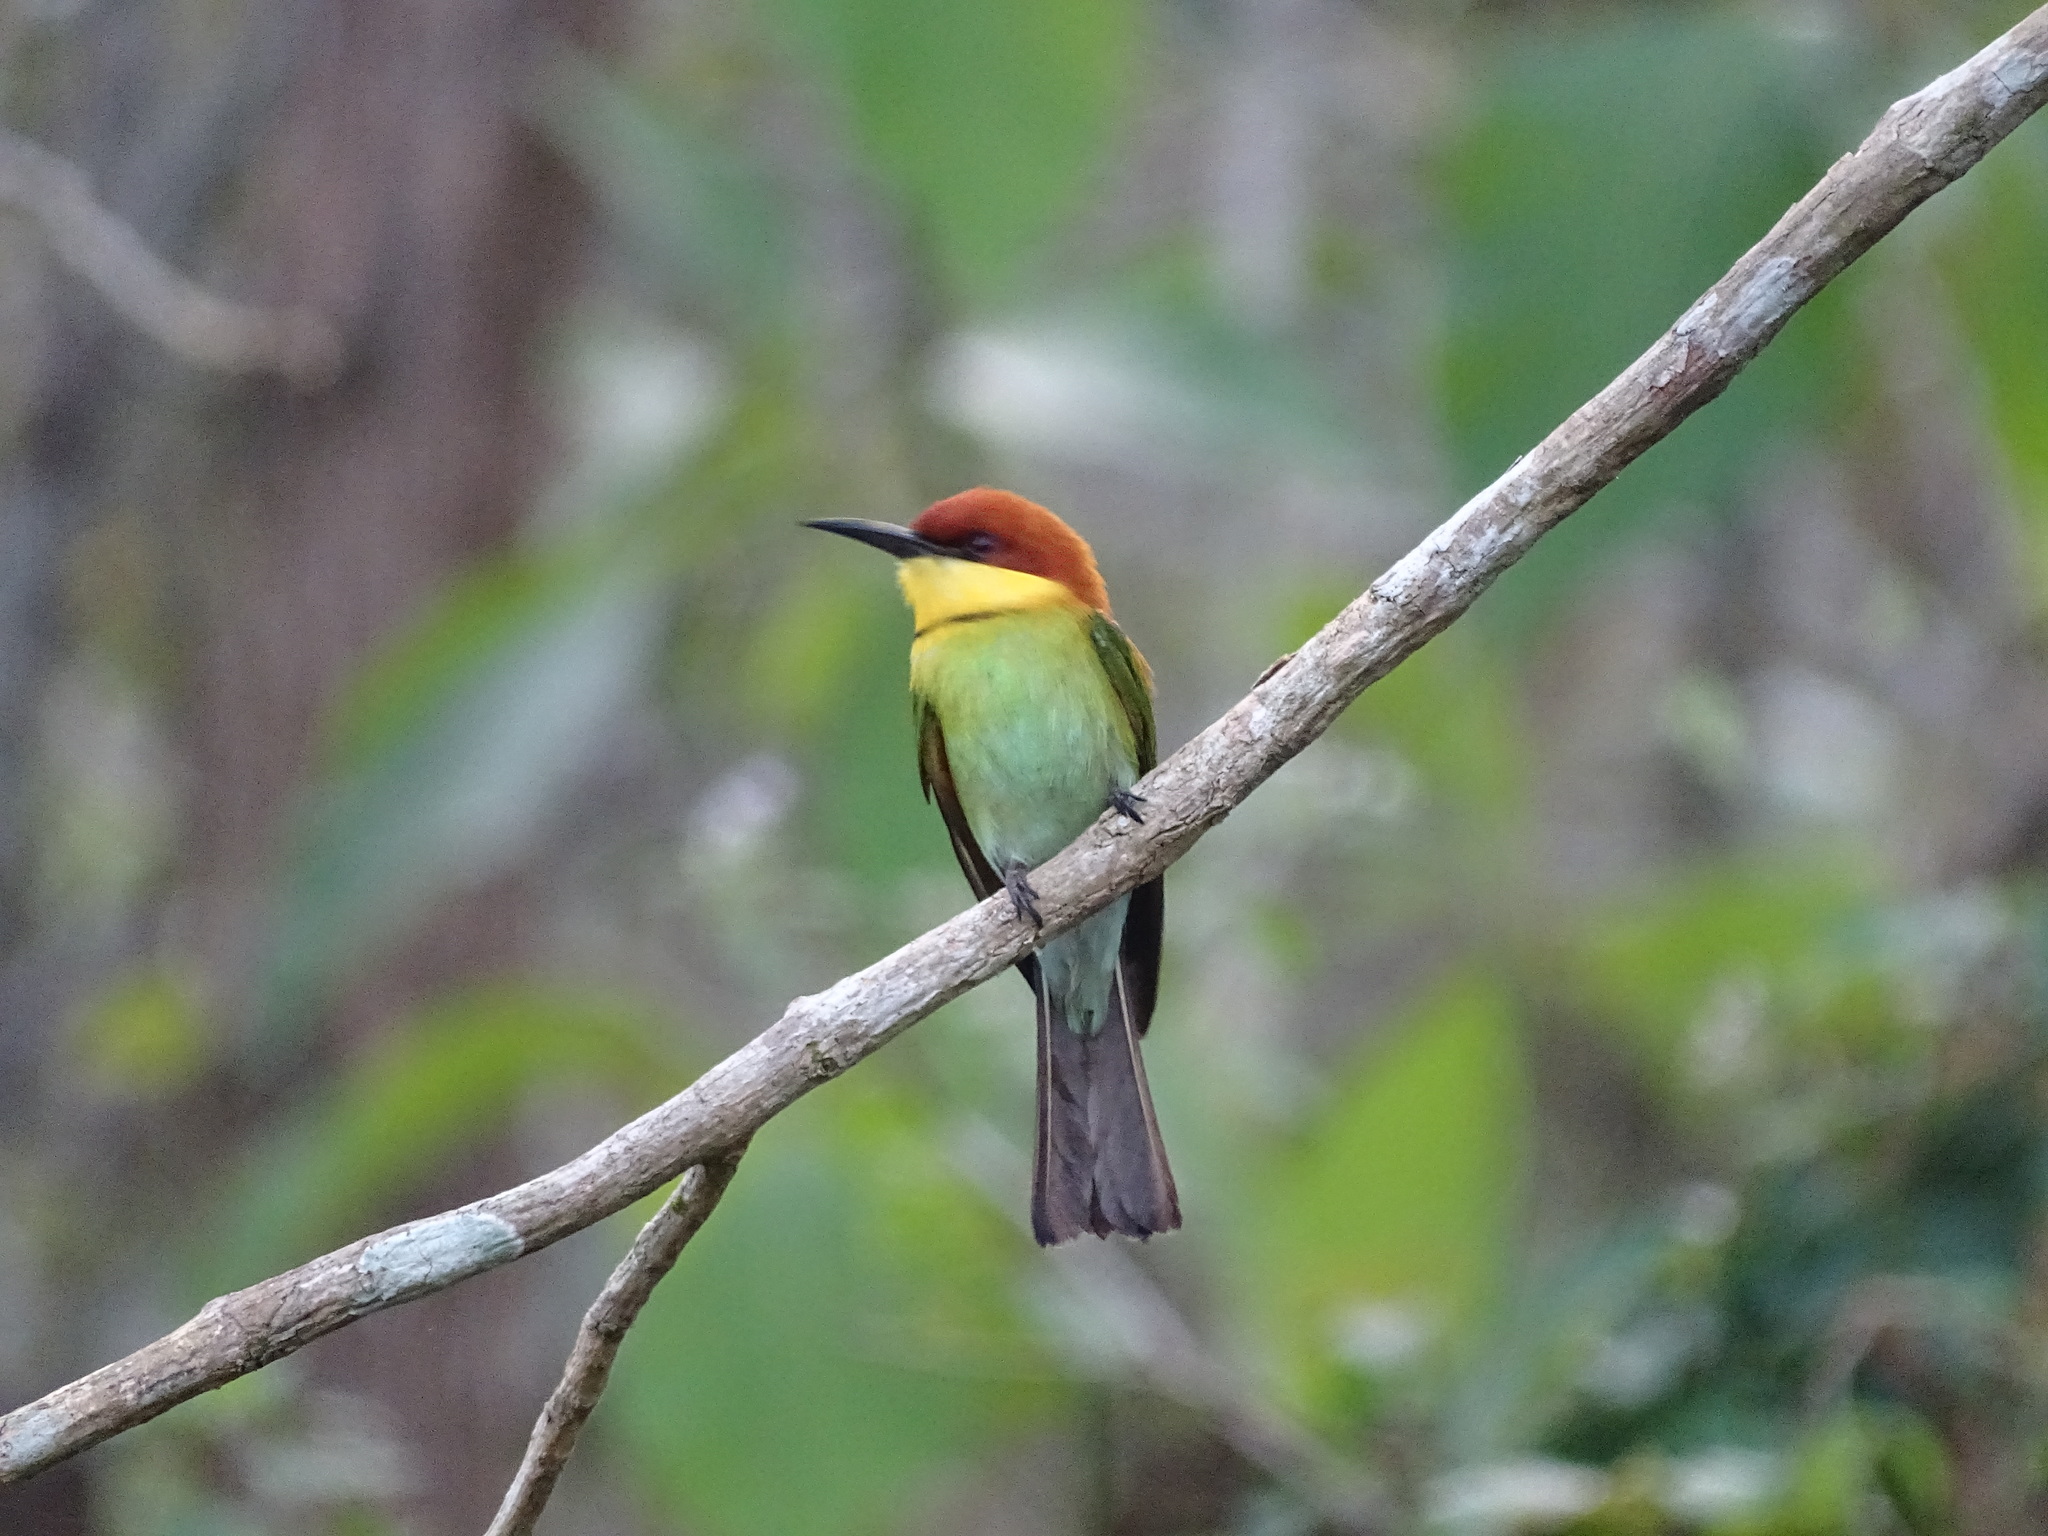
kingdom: Animalia
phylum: Chordata
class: Aves
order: Coraciiformes
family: Meropidae
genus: Merops
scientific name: Merops leschenaulti
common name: Chestnut-headed bee-eater
